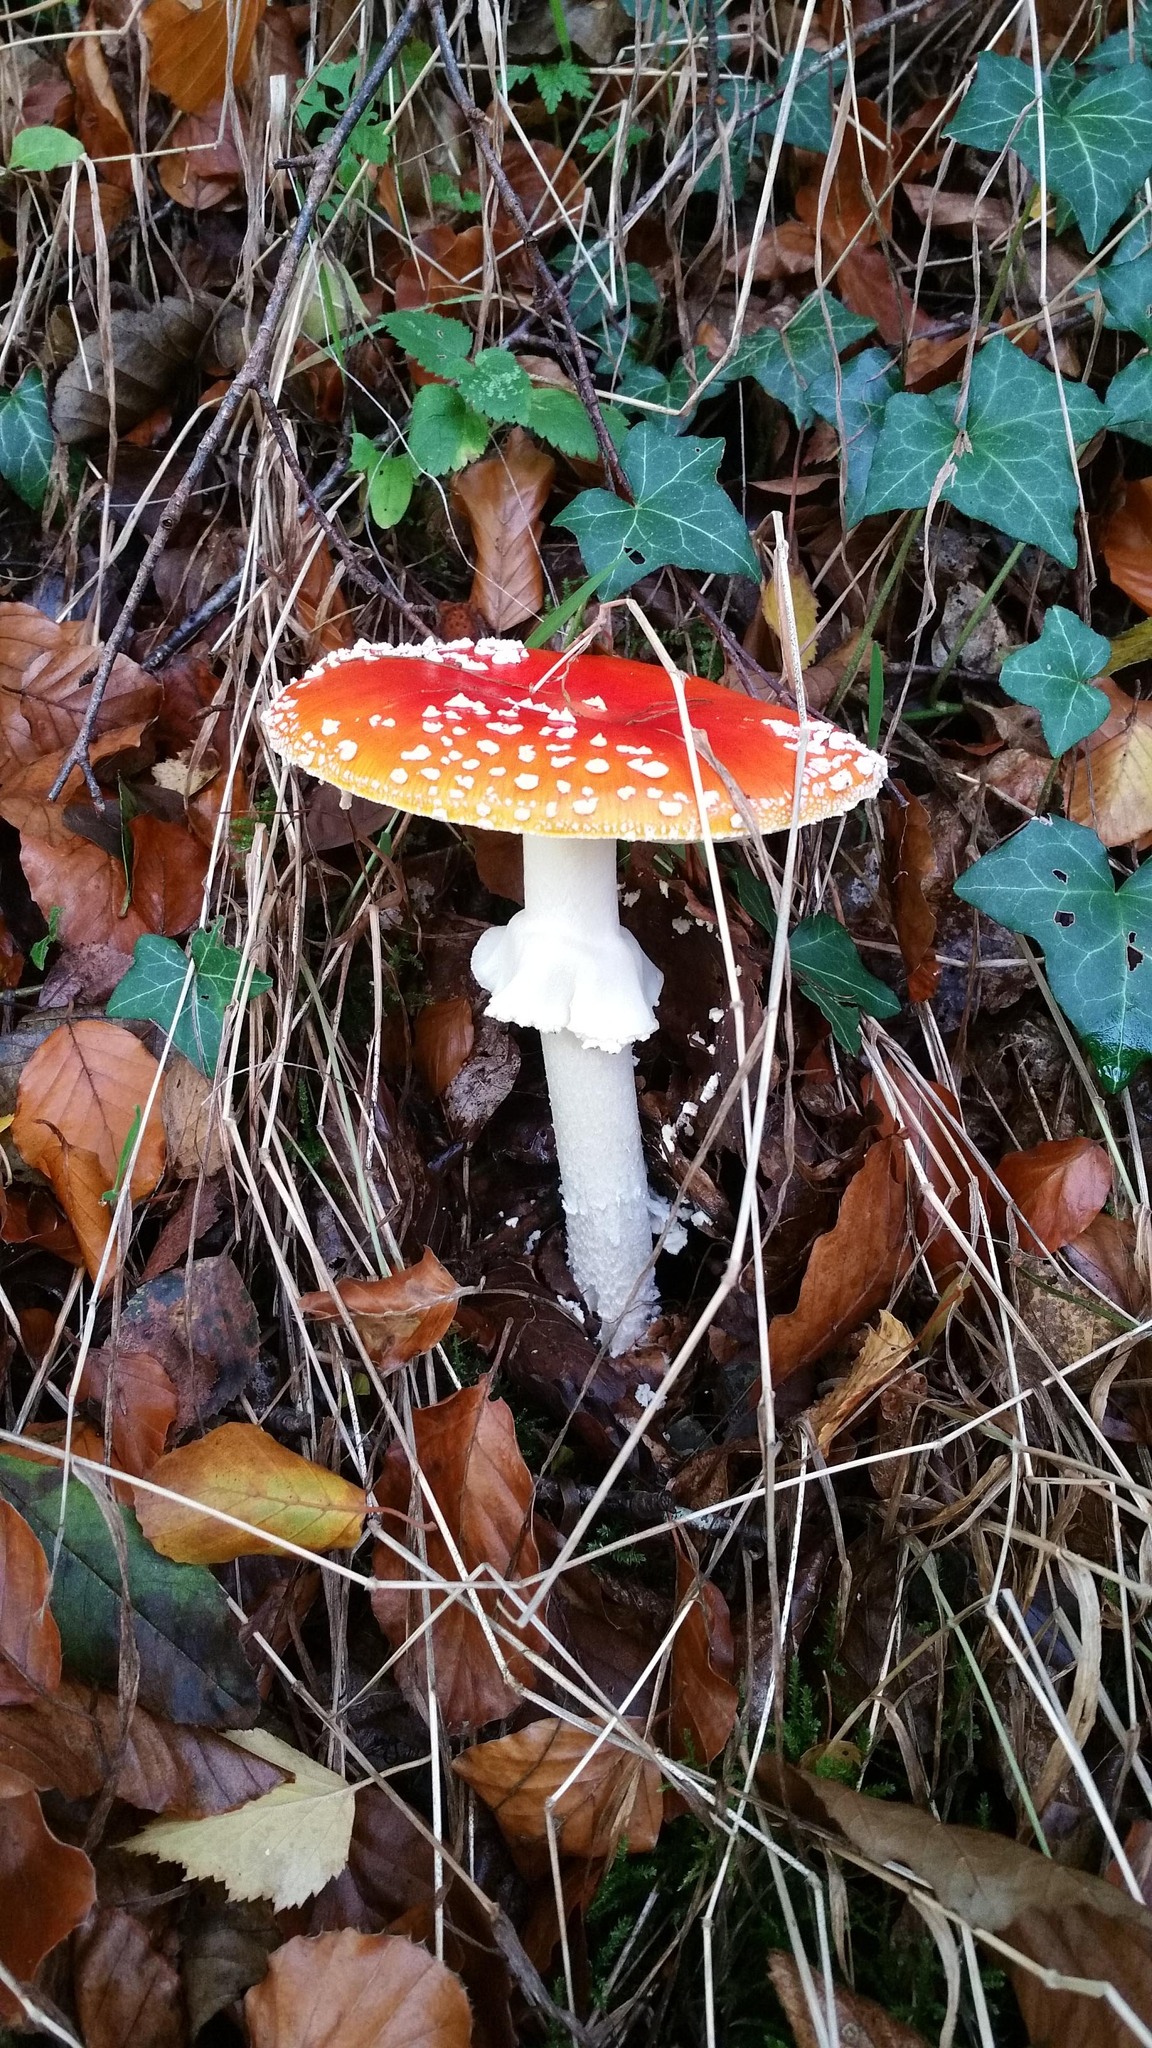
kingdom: Fungi
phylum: Basidiomycota
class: Agaricomycetes
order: Agaricales
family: Amanitaceae
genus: Amanita
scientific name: Amanita muscaria
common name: Fly agaric
